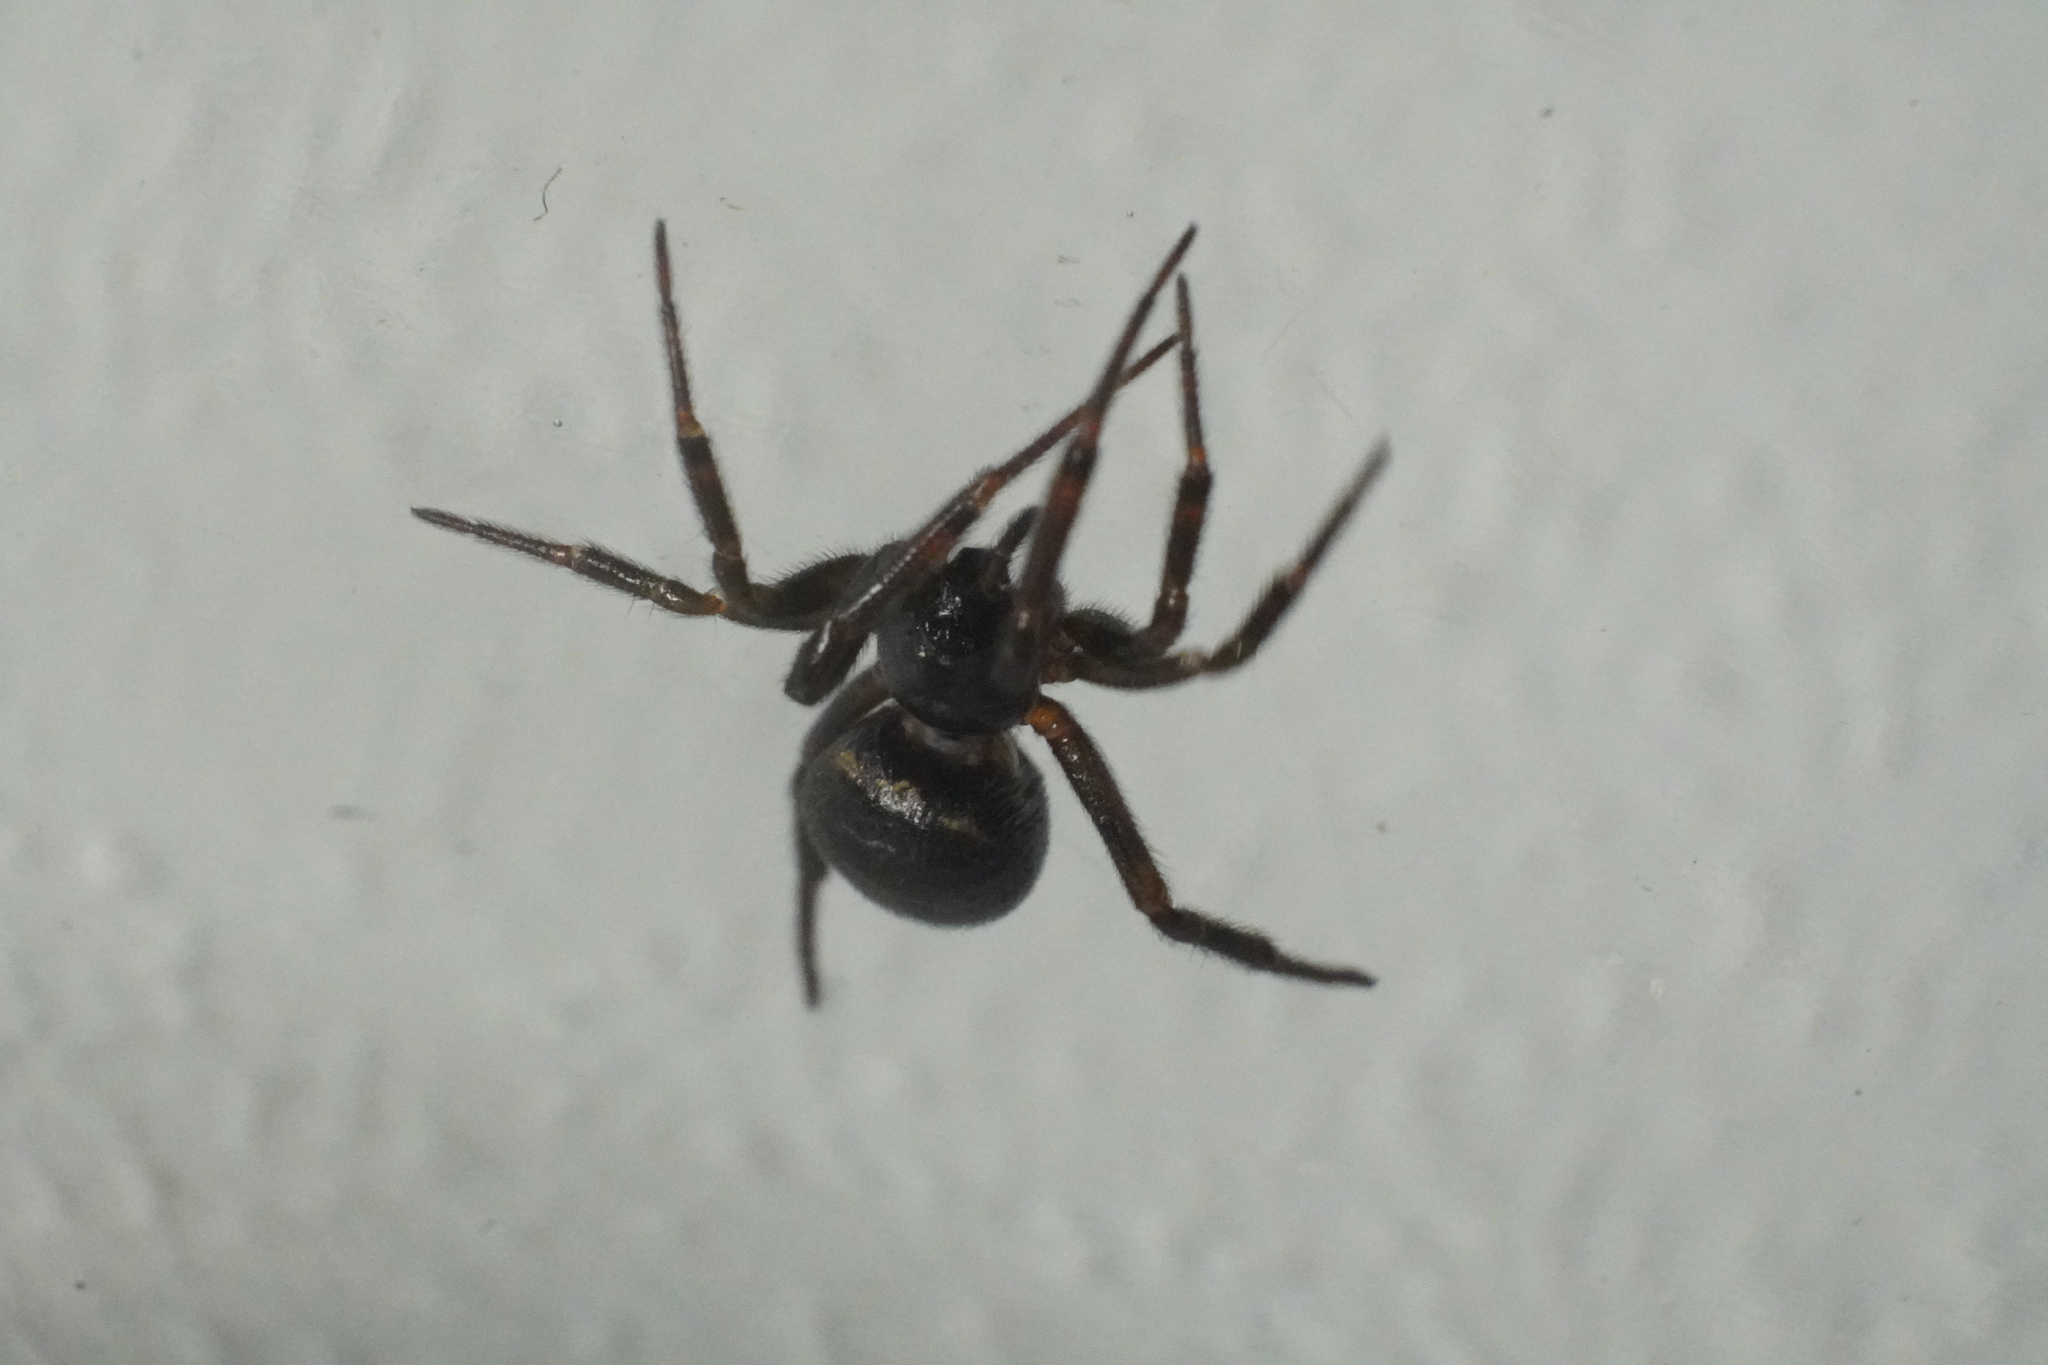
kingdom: Animalia
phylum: Arthropoda
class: Arachnida
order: Araneae
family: Theridiidae
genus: Steatoda
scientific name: Steatoda borealis
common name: Boreal combfoot
